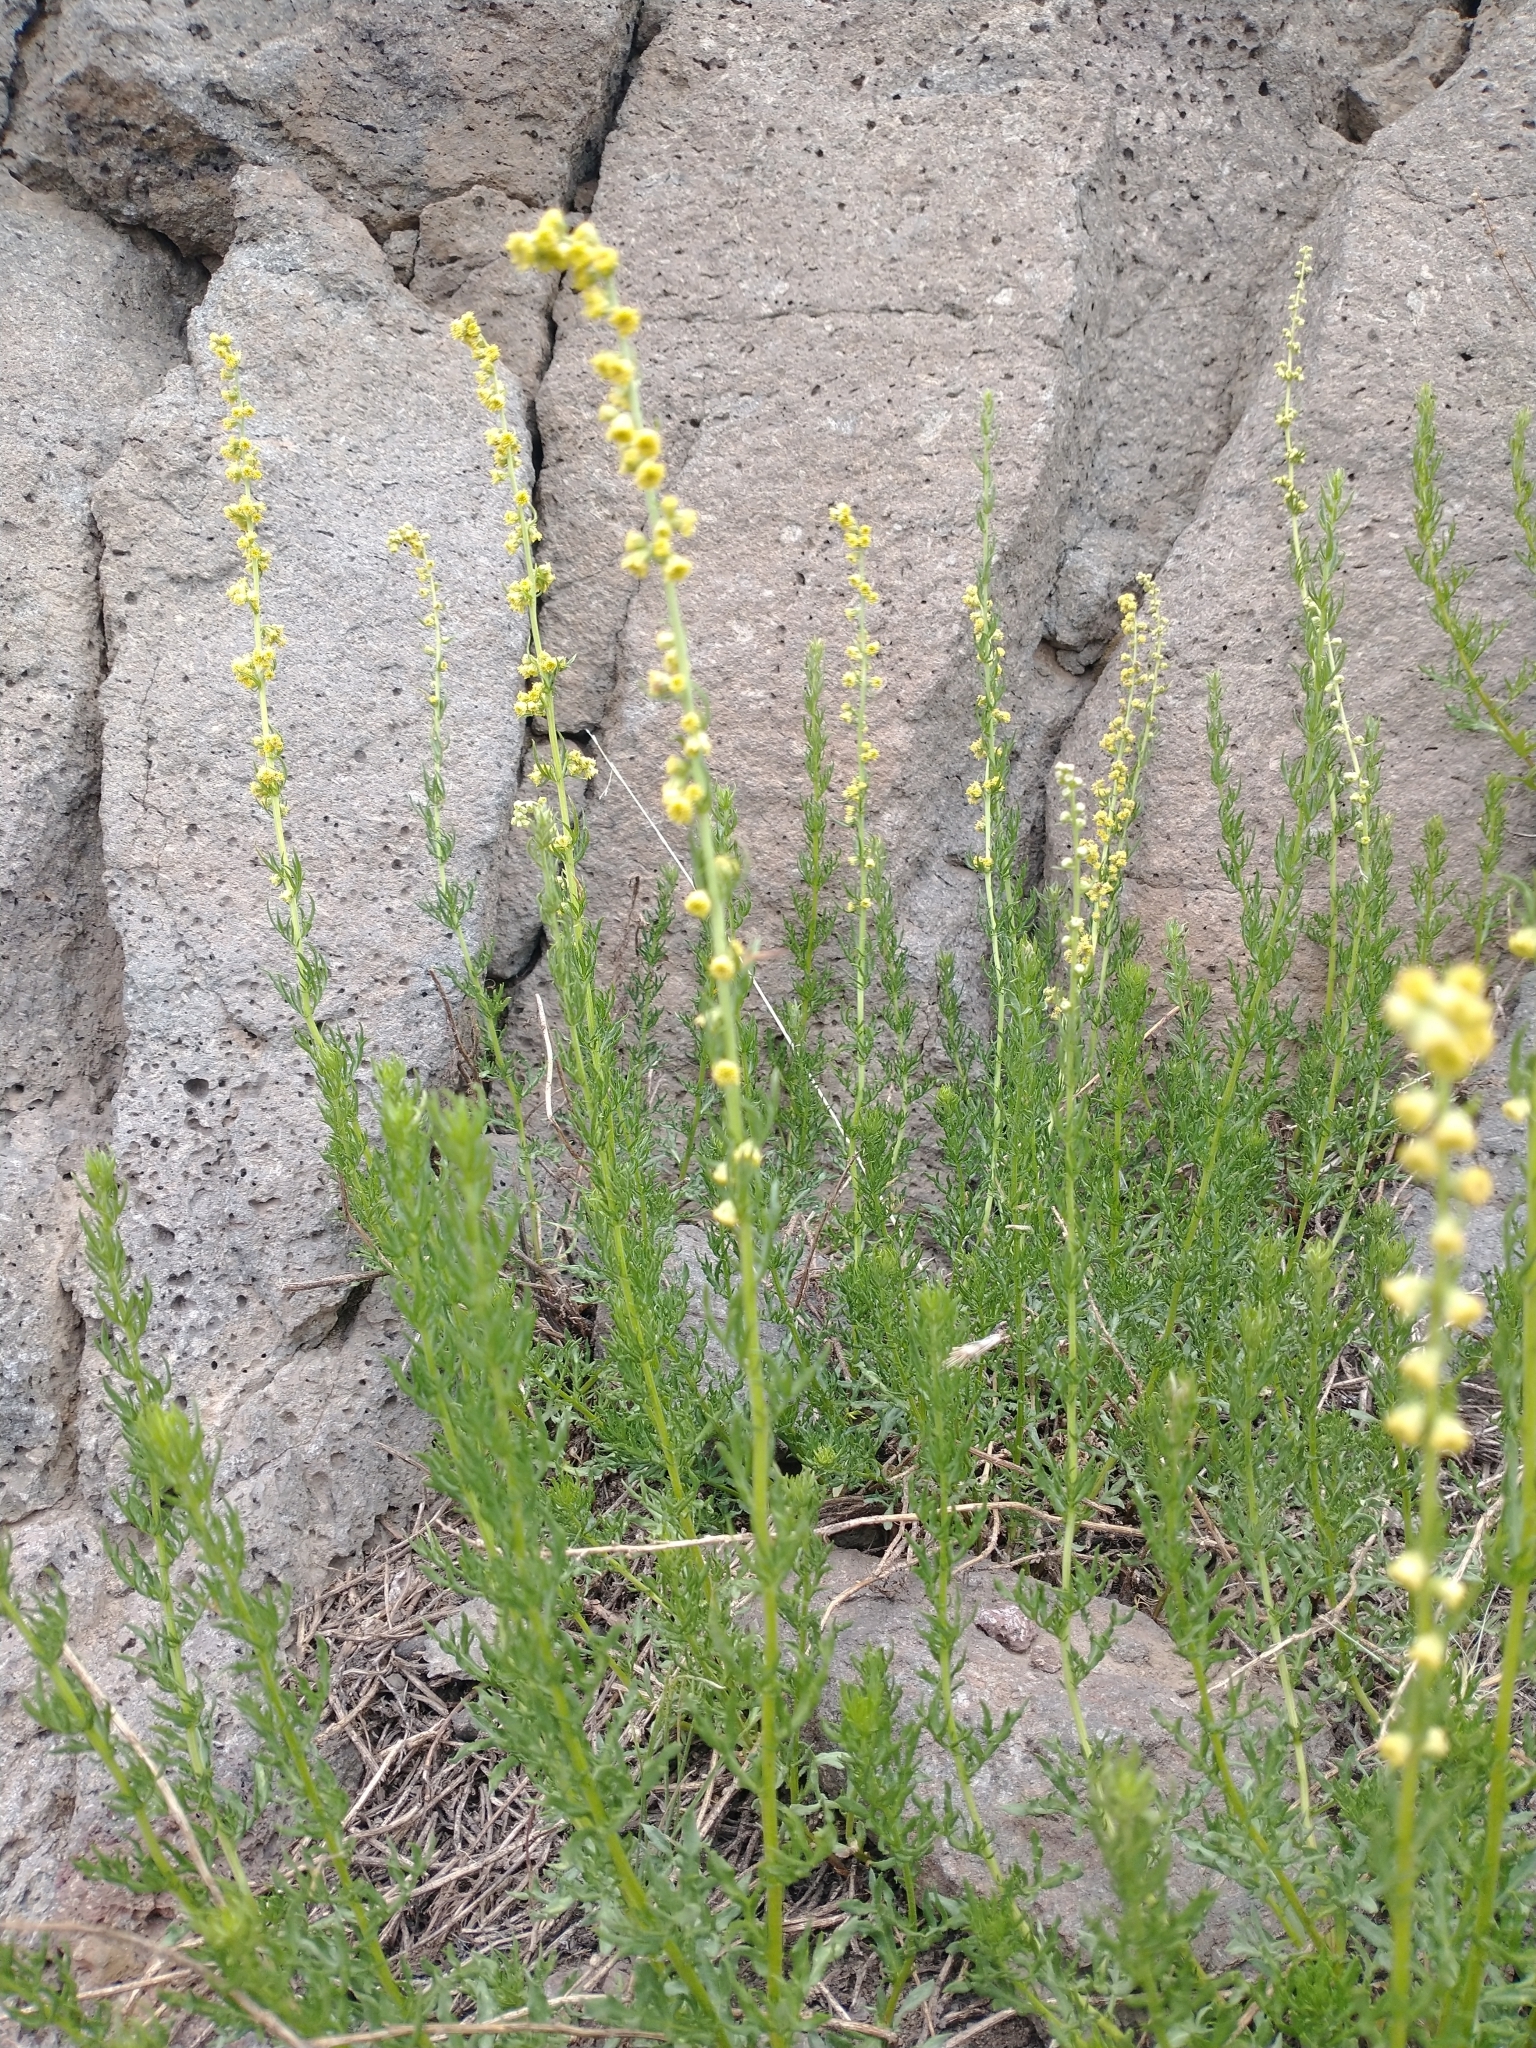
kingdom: Plantae
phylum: Tracheophyta
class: Magnoliopsida
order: Asterales
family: Asteraceae
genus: Artemisia
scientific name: Artemisia michauxiana
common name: Lemon sagewort
